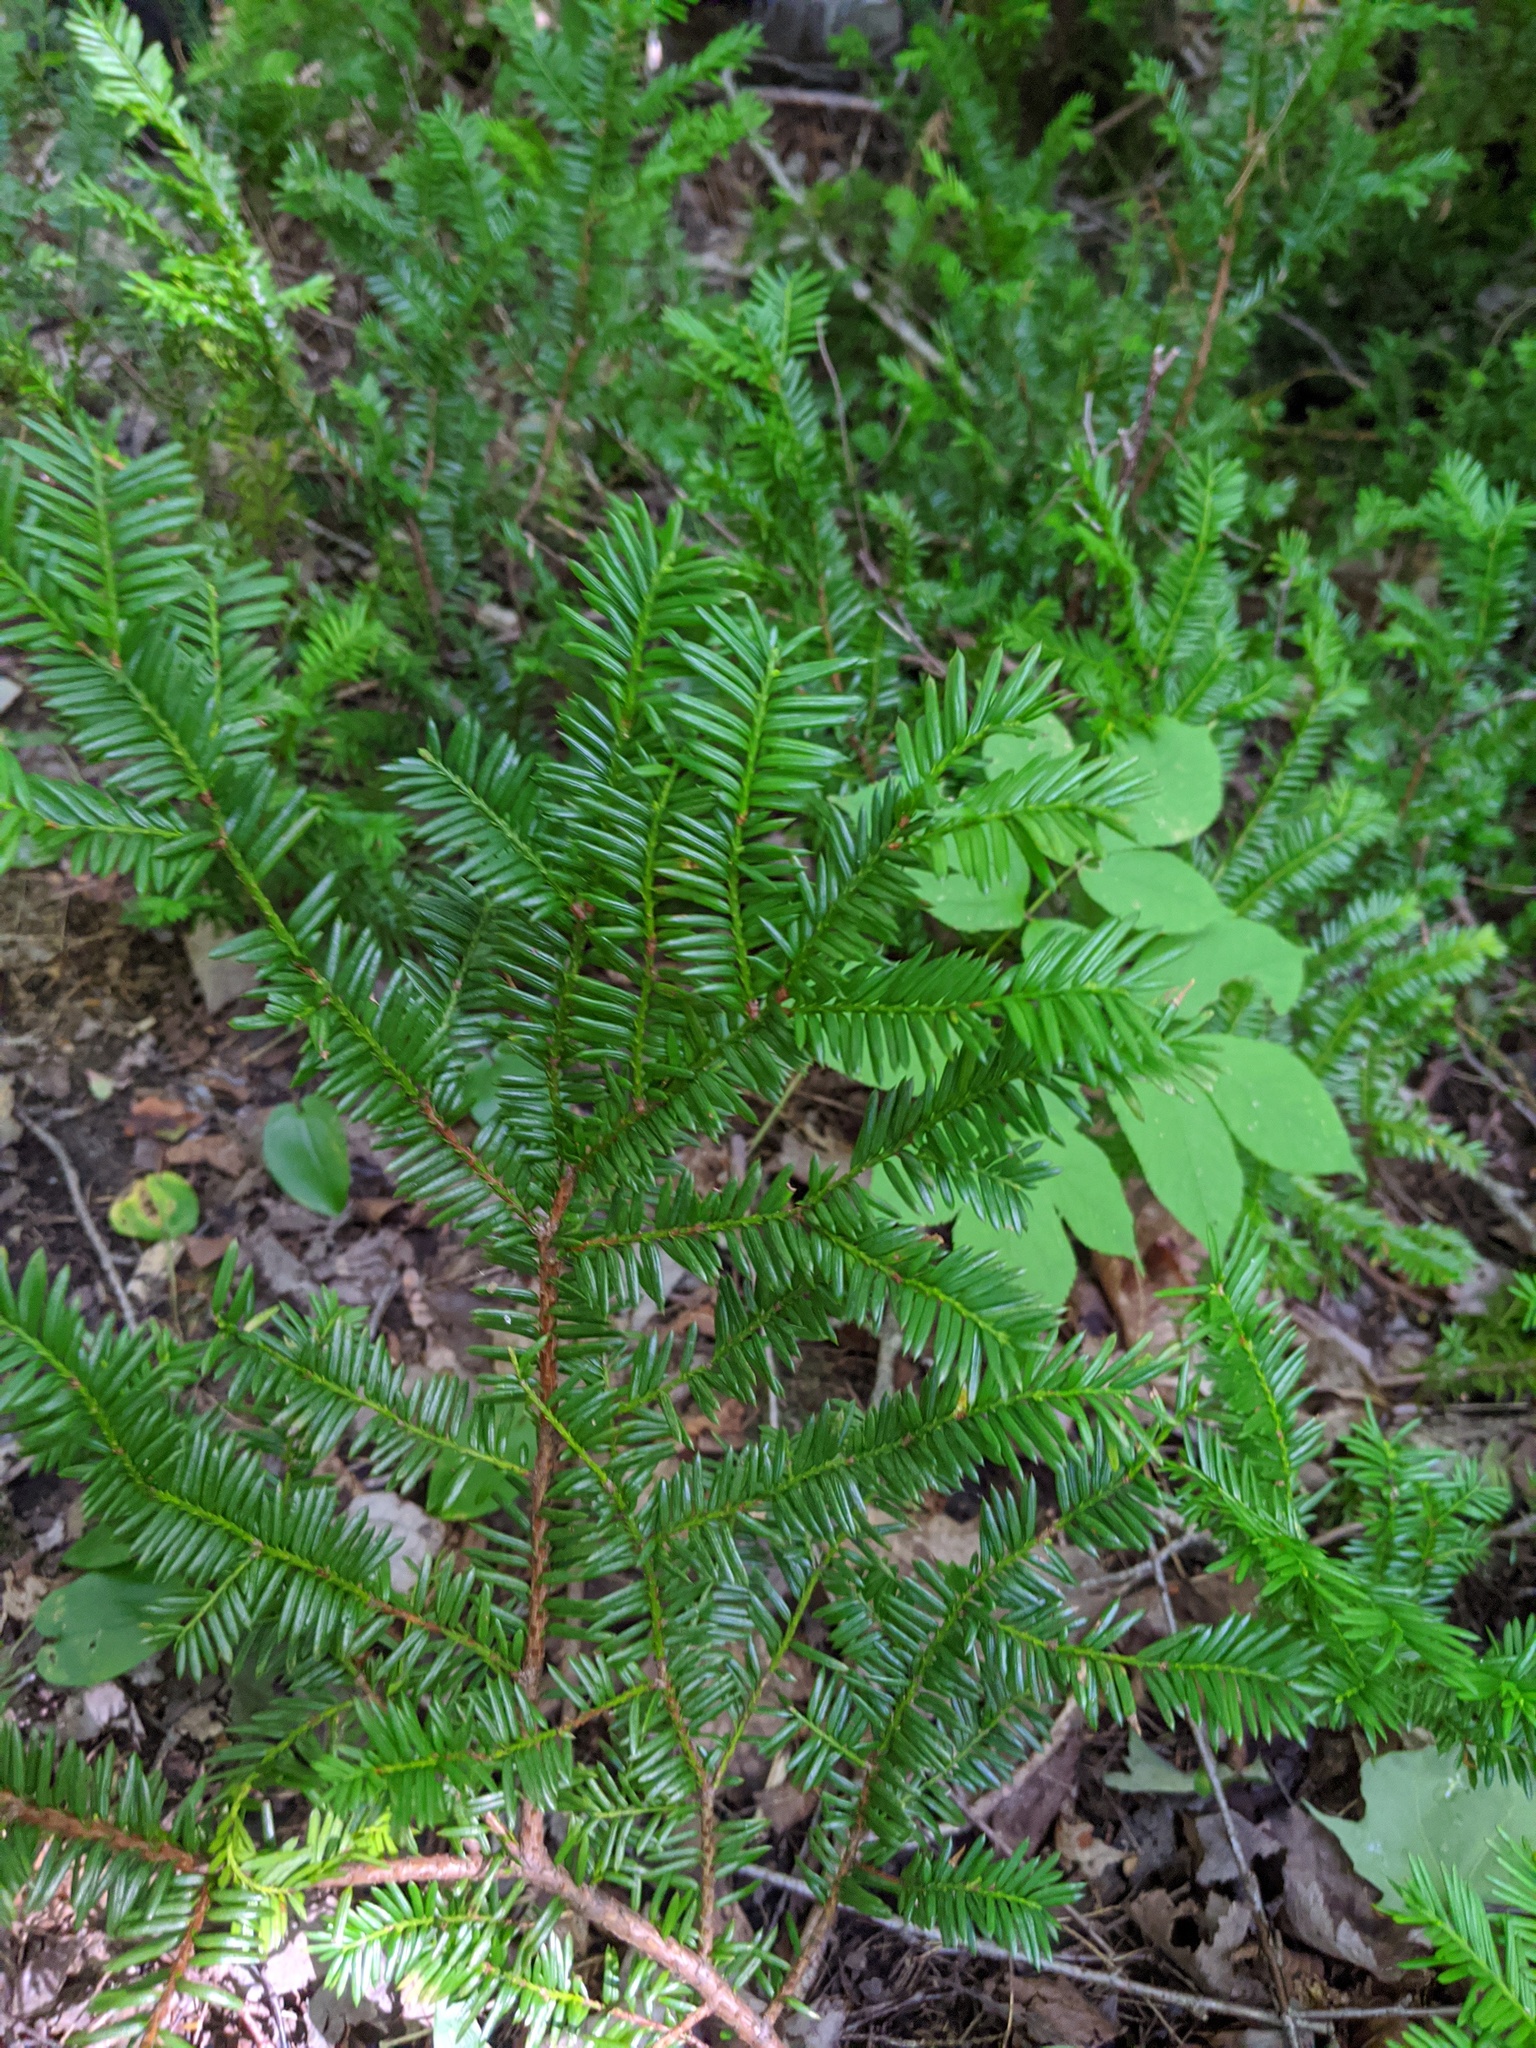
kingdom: Plantae
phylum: Tracheophyta
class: Pinopsida
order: Pinales
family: Taxaceae
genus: Taxus
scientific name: Taxus canadensis
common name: American yew
